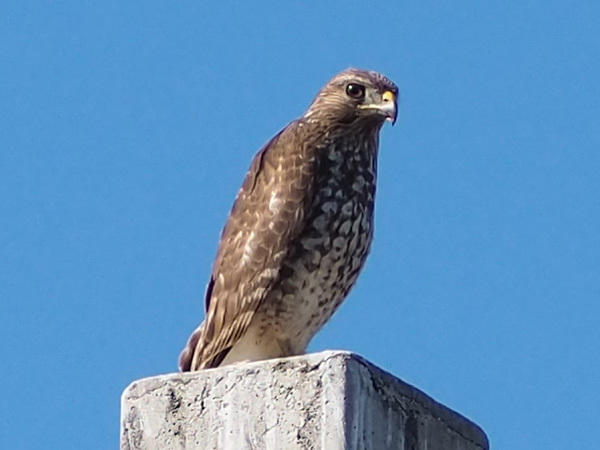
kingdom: Animalia
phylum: Chordata
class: Aves
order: Accipitriformes
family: Accipitridae
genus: Buteo
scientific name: Buteo lineatus
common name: Red-shouldered hawk
